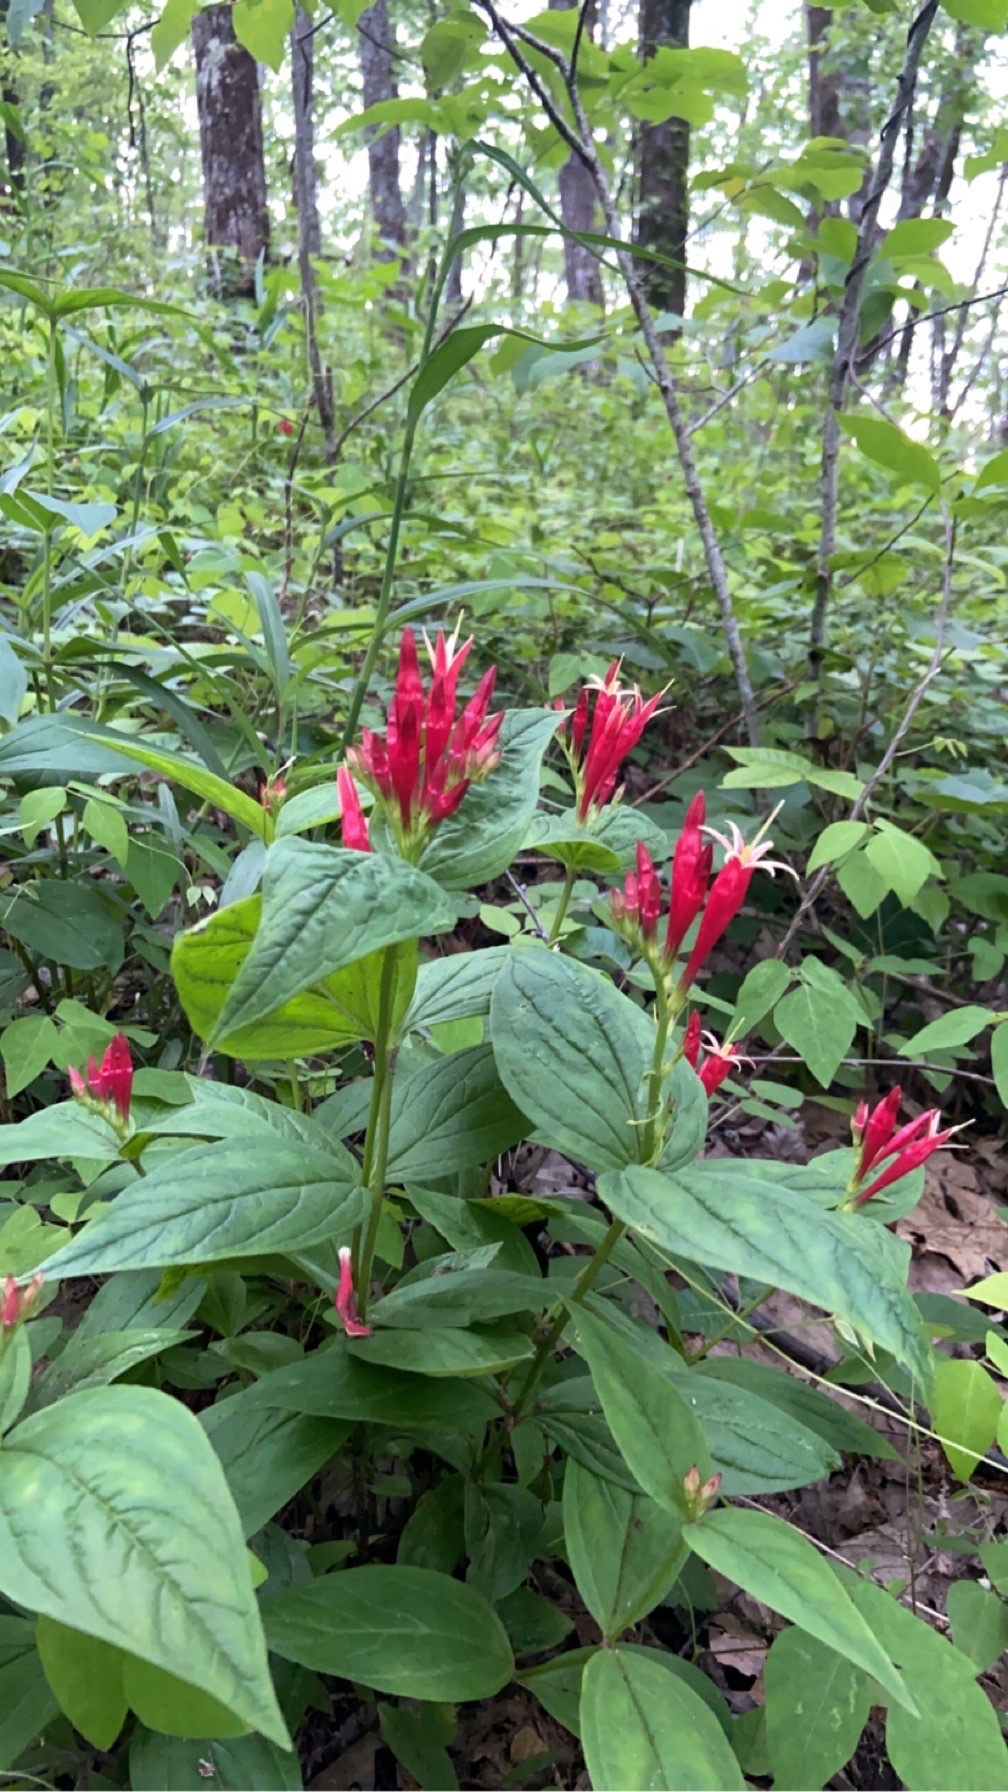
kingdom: Plantae
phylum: Tracheophyta
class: Magnoliopsida
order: Gentianales
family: Loganiaceae
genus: Spigelia
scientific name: Spigelia marilandica
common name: Indian-pink
